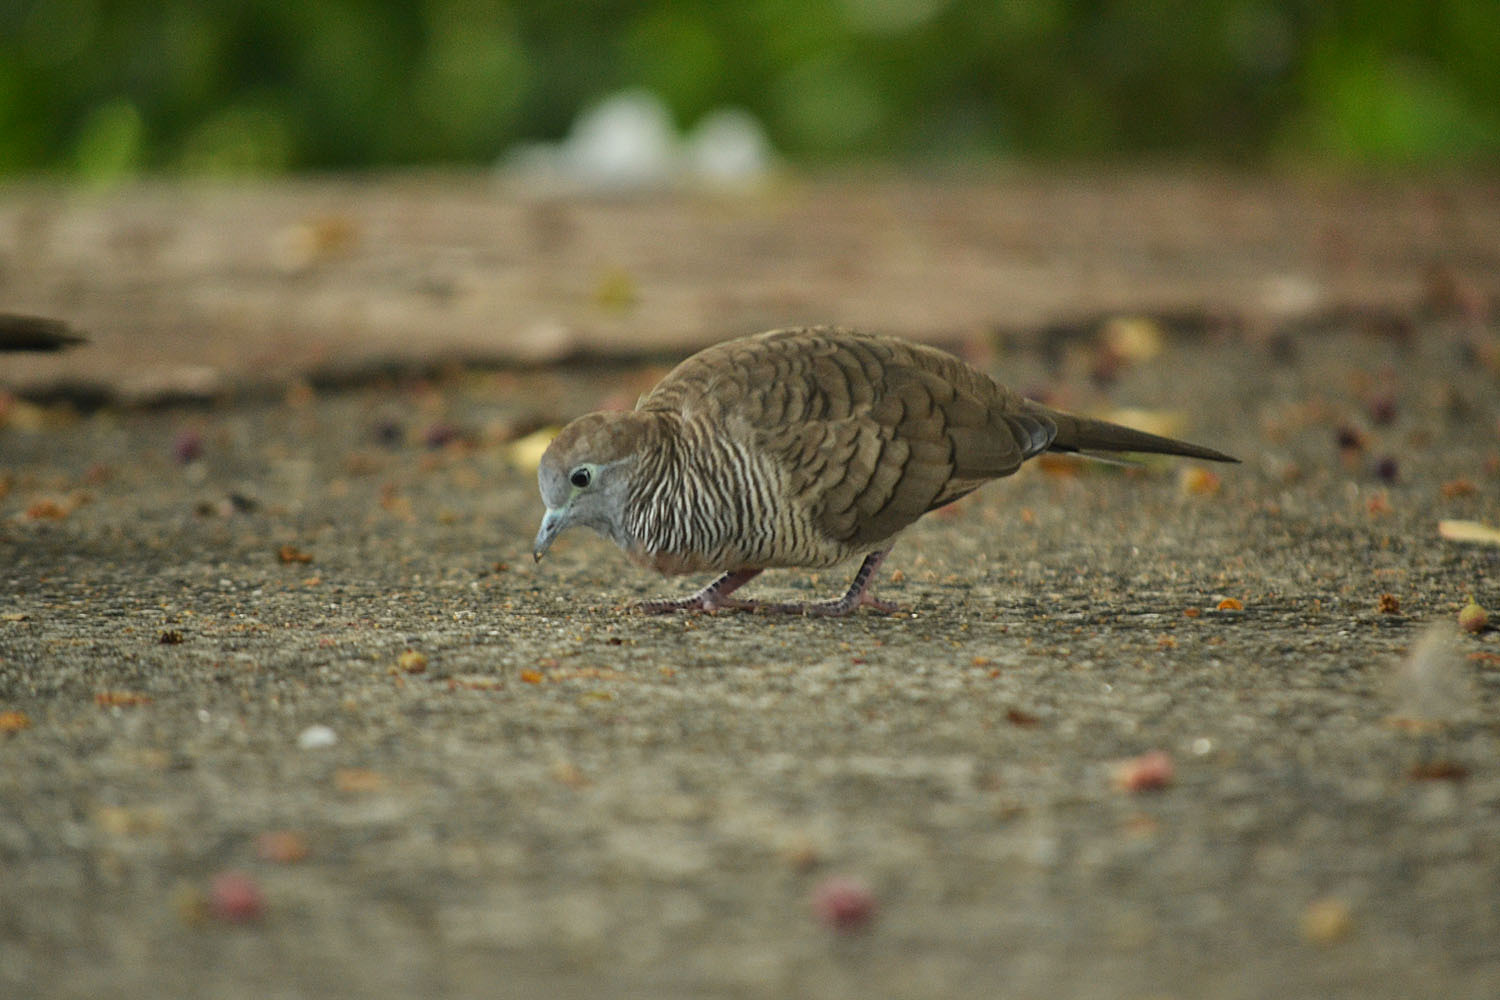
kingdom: Animalia
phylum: Chordata
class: Aves
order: Columbiformes
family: Columbidae
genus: Geopelia
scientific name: Geopelia striata
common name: Zebra dove
